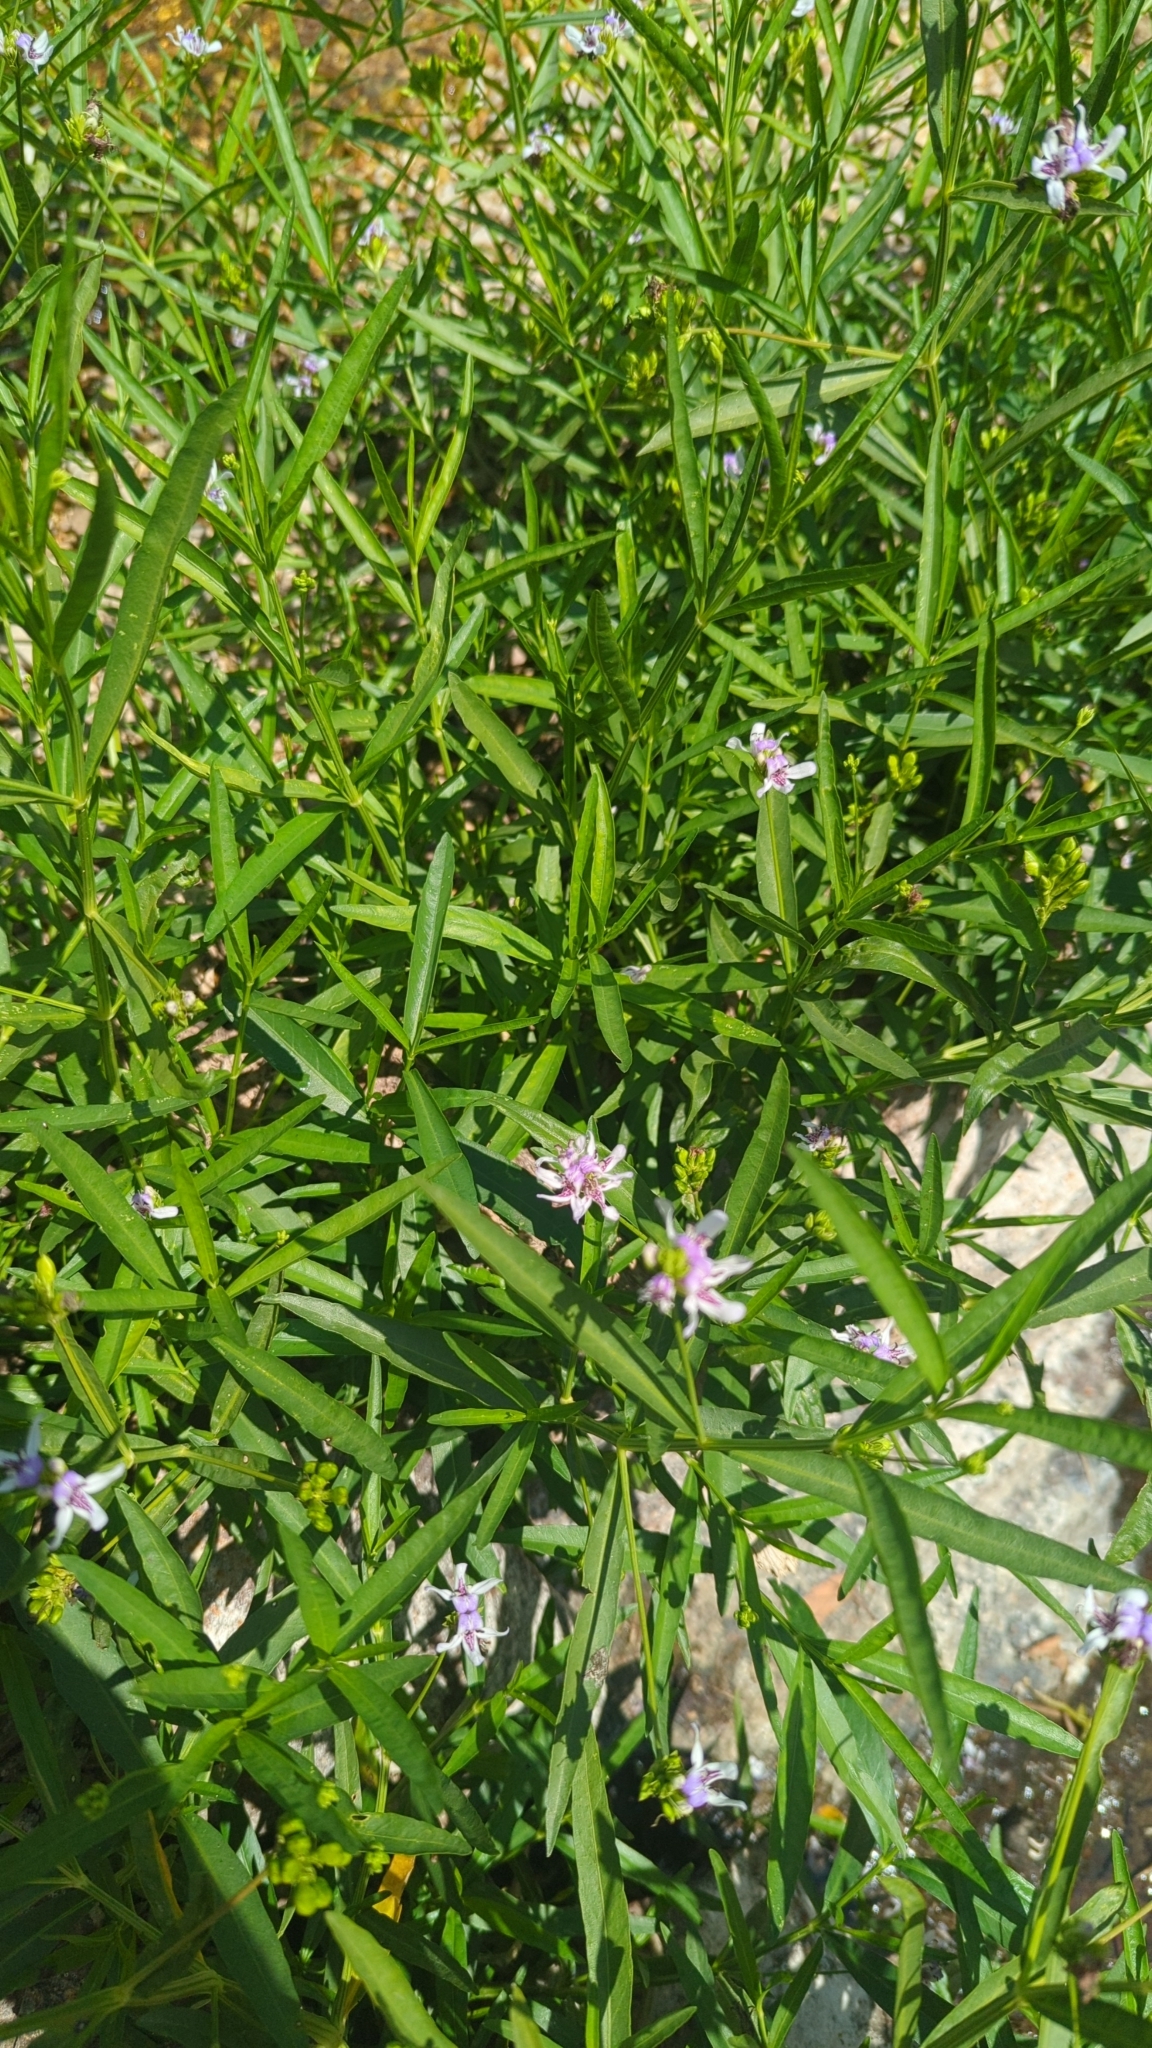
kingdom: Plantae
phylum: Tracheophyta
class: Magnoliopsida
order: Lamiales
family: Acanthaceae
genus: Dianthera
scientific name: Dianthera americana
